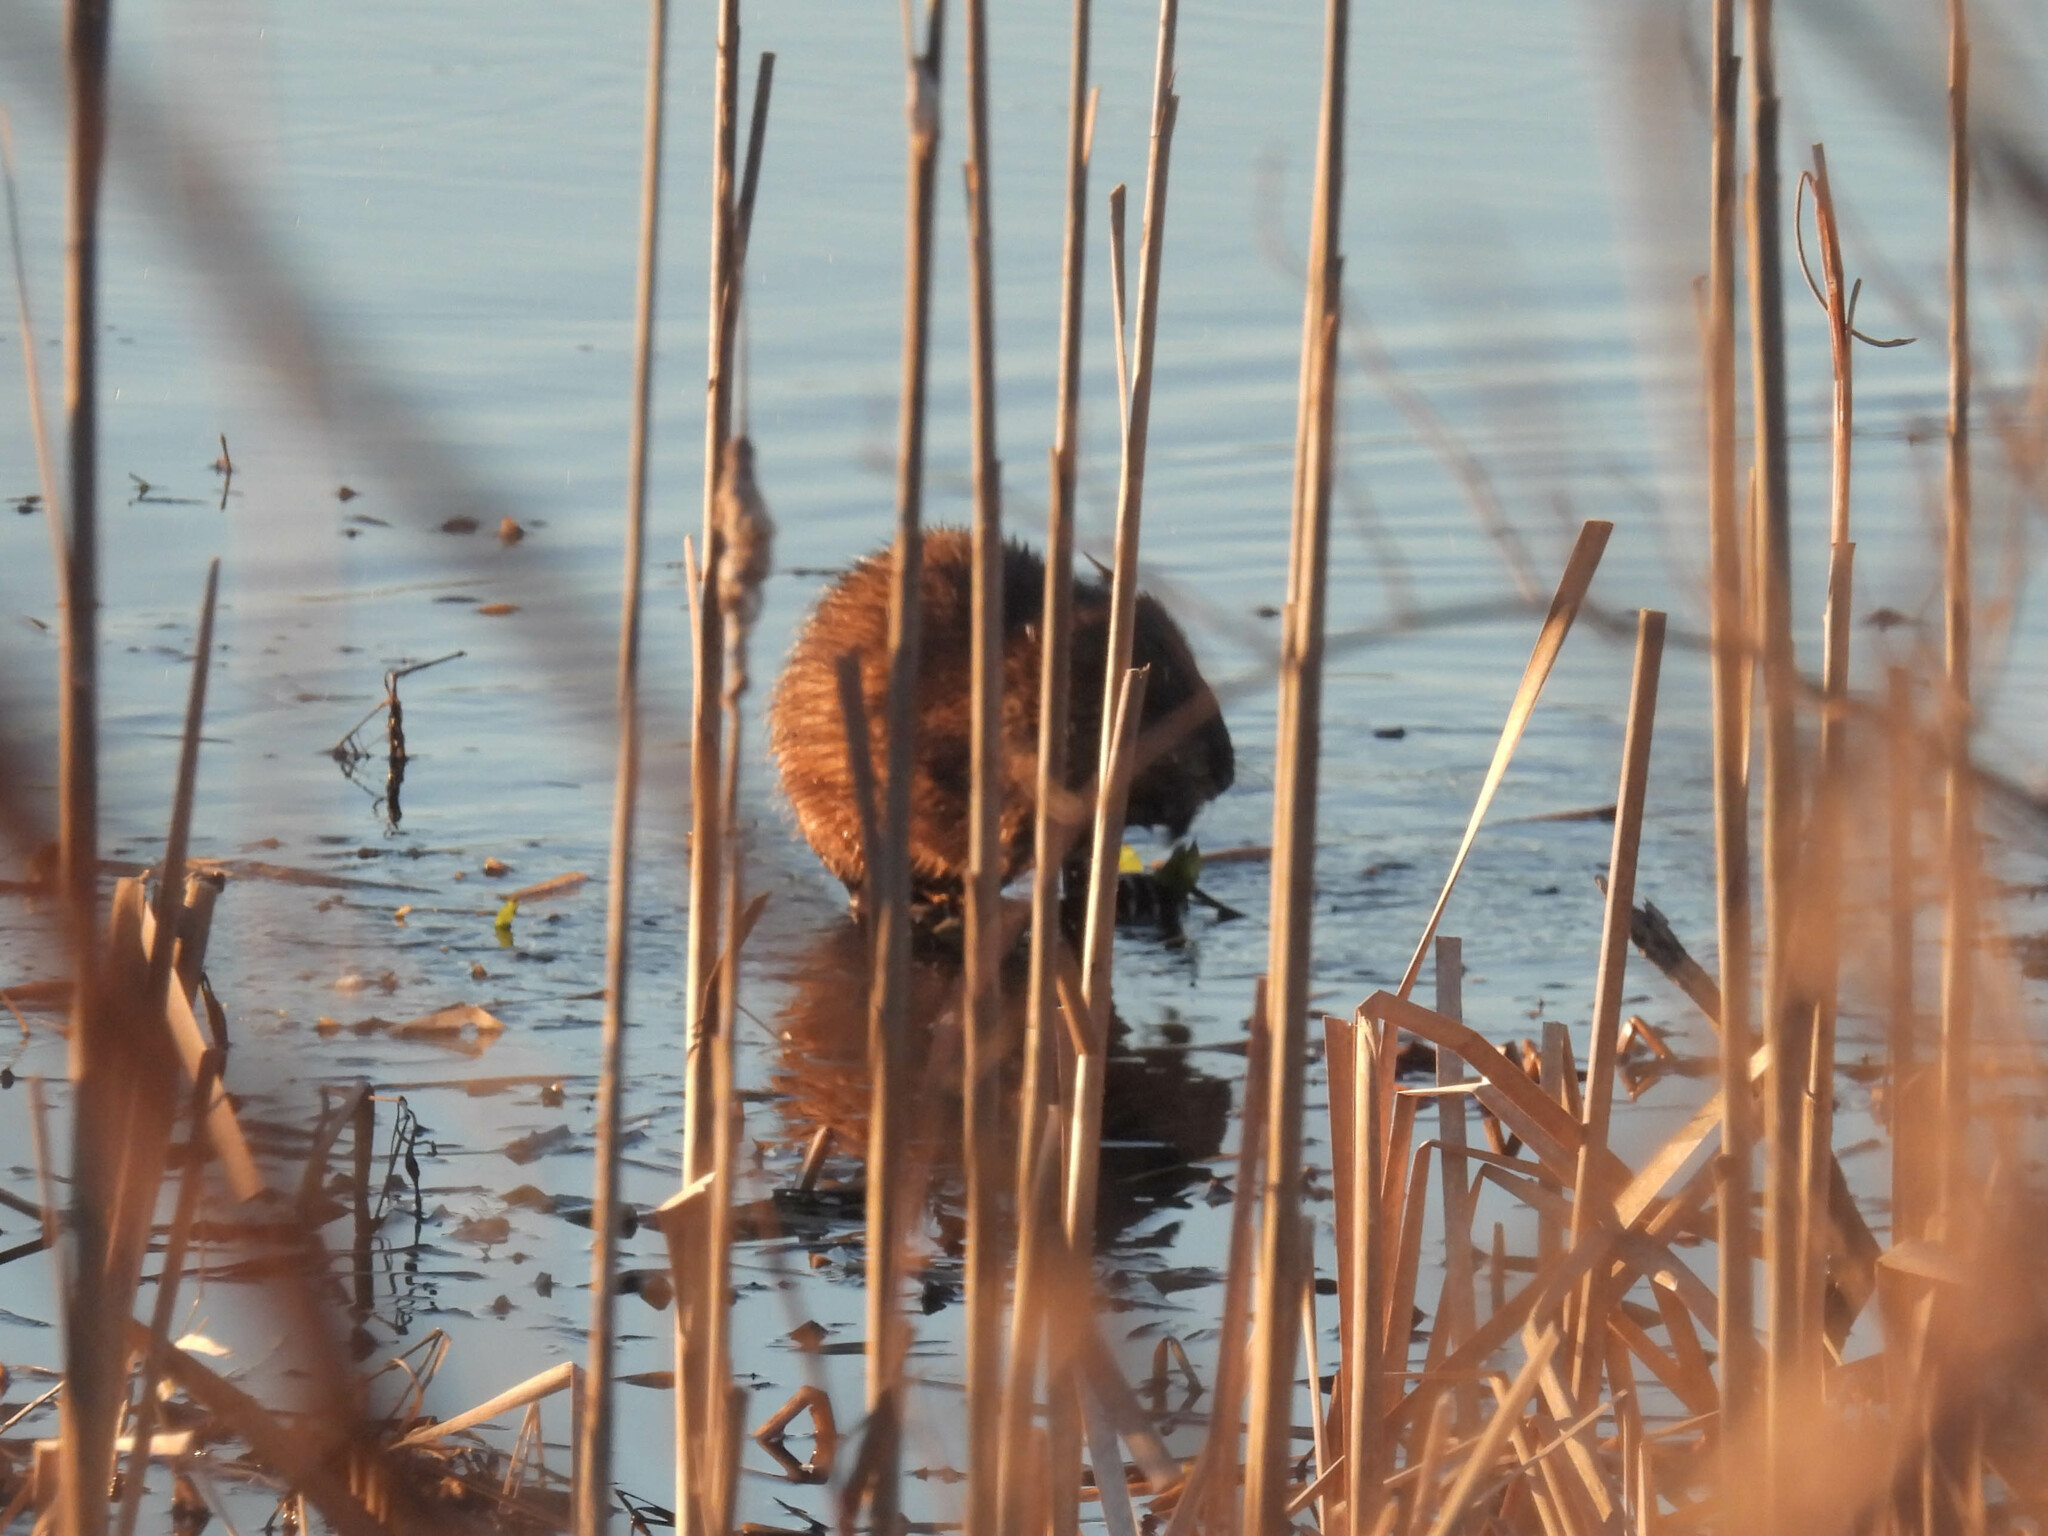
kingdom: Animalia
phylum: Chordata
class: Mammalia
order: Rodentia
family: Cricetidae
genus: Ondatra
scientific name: Ondatra zibethicus
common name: Muskrat
